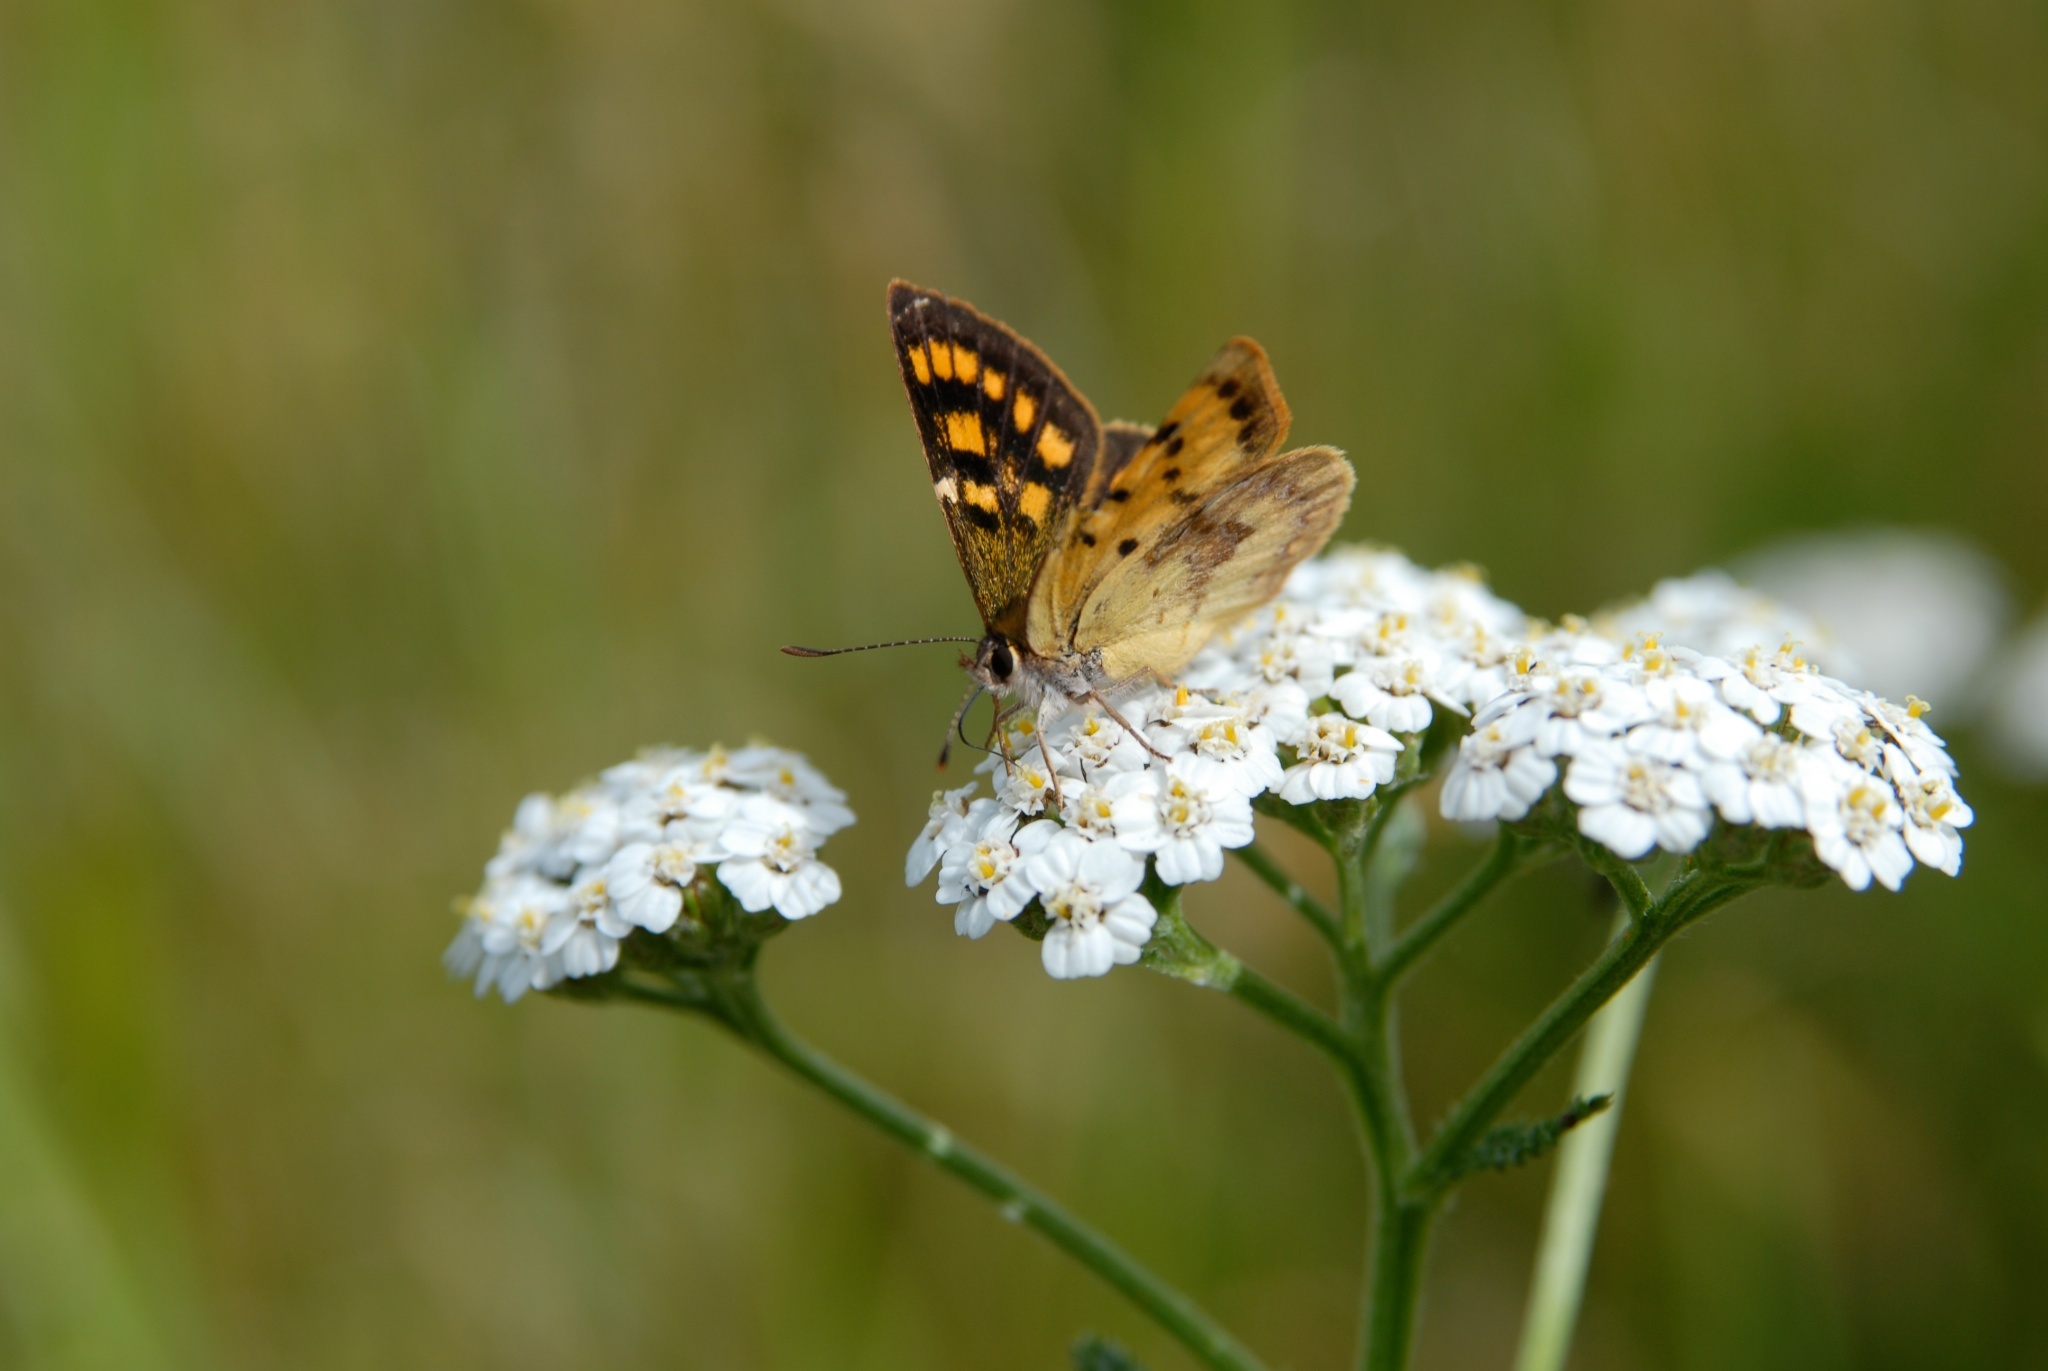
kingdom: Animalia
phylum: Arthropoda
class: Insecta
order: Lepidoptera
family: Lycaenidae
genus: Lycaena
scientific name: Lycaena feredayi
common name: Glade copper
